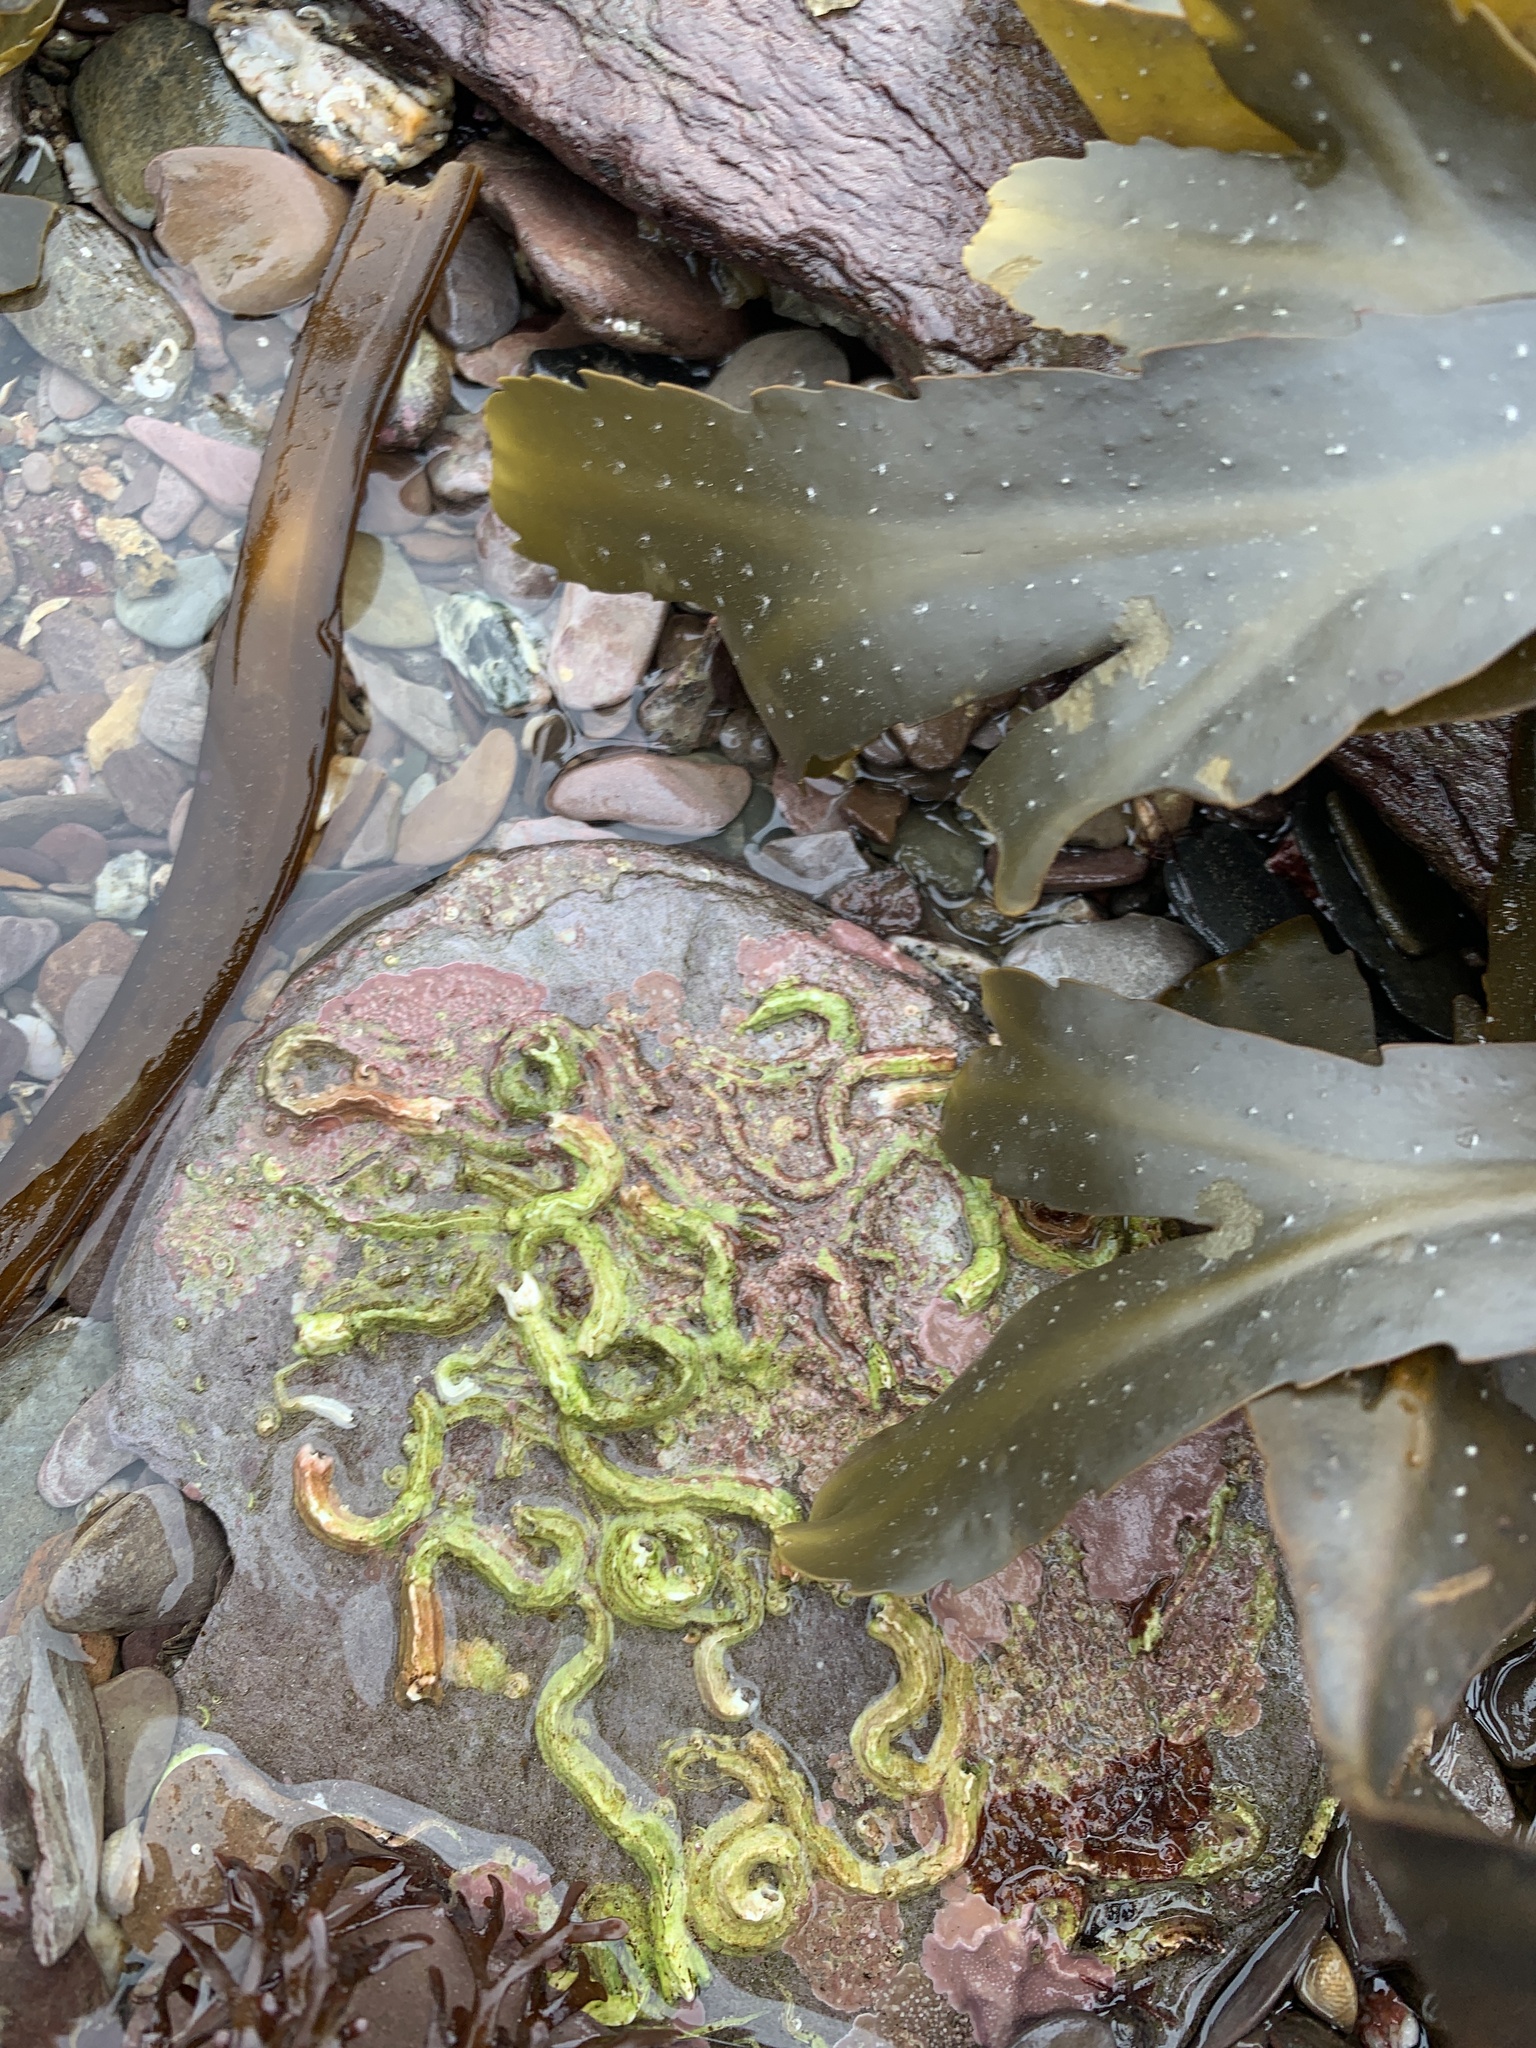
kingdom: Animalia
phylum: Annelida
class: Polychaeta
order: Sabellida
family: Serpulidae
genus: Spirobranchus
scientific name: Spirobranchus triqueter
